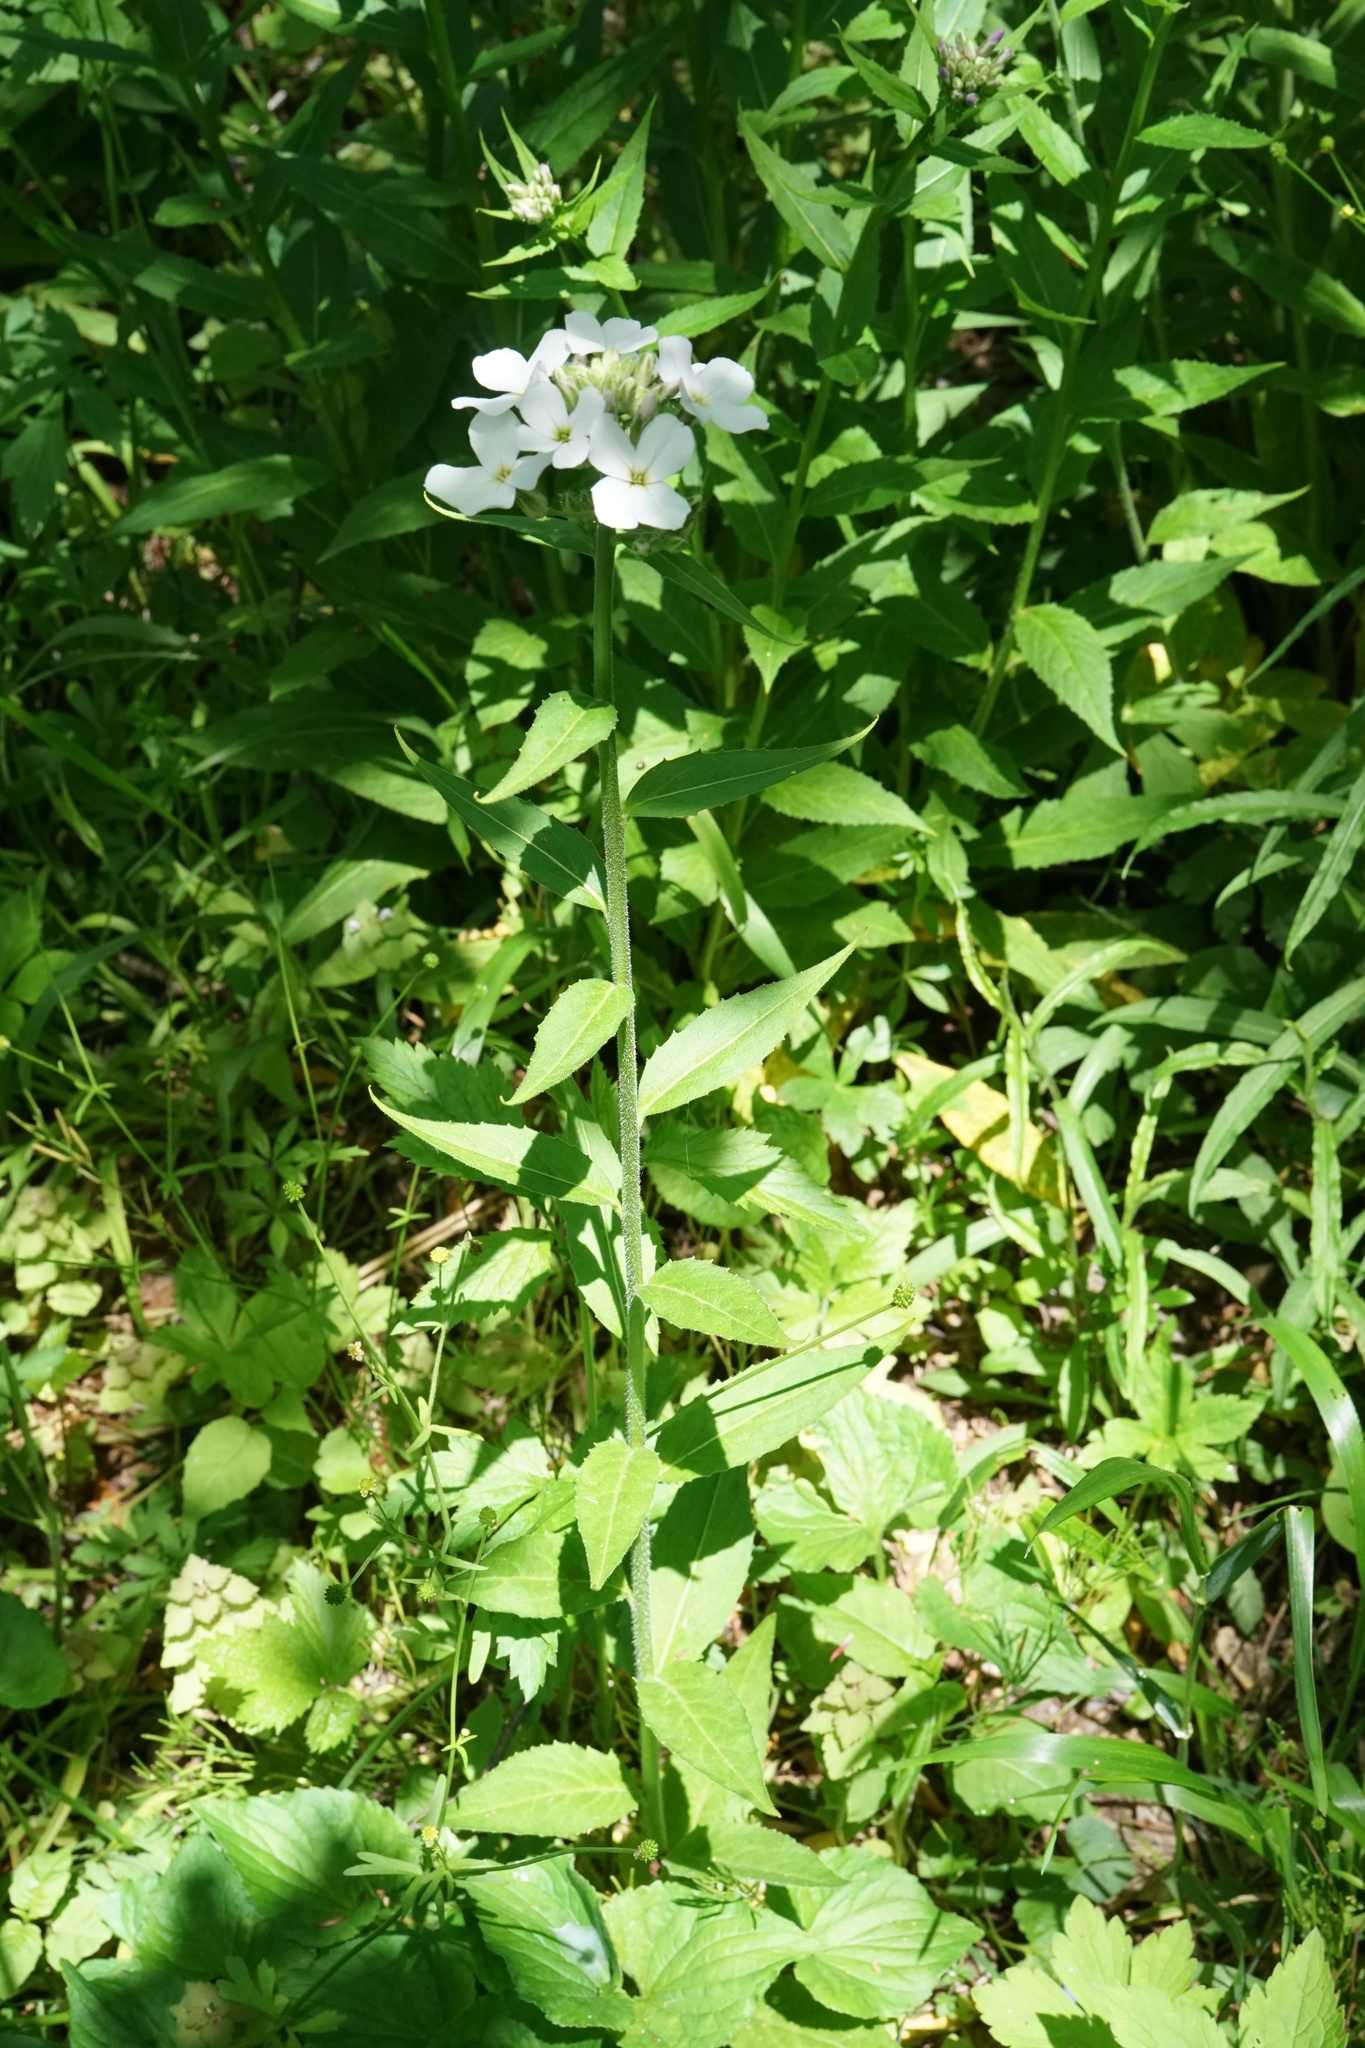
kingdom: Plantae
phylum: Tracheophyta
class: Magnoliopsida
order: Brassicales
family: Brassicaceae
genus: Hesperis
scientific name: Hesperis matronalis
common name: Dame's-violet
